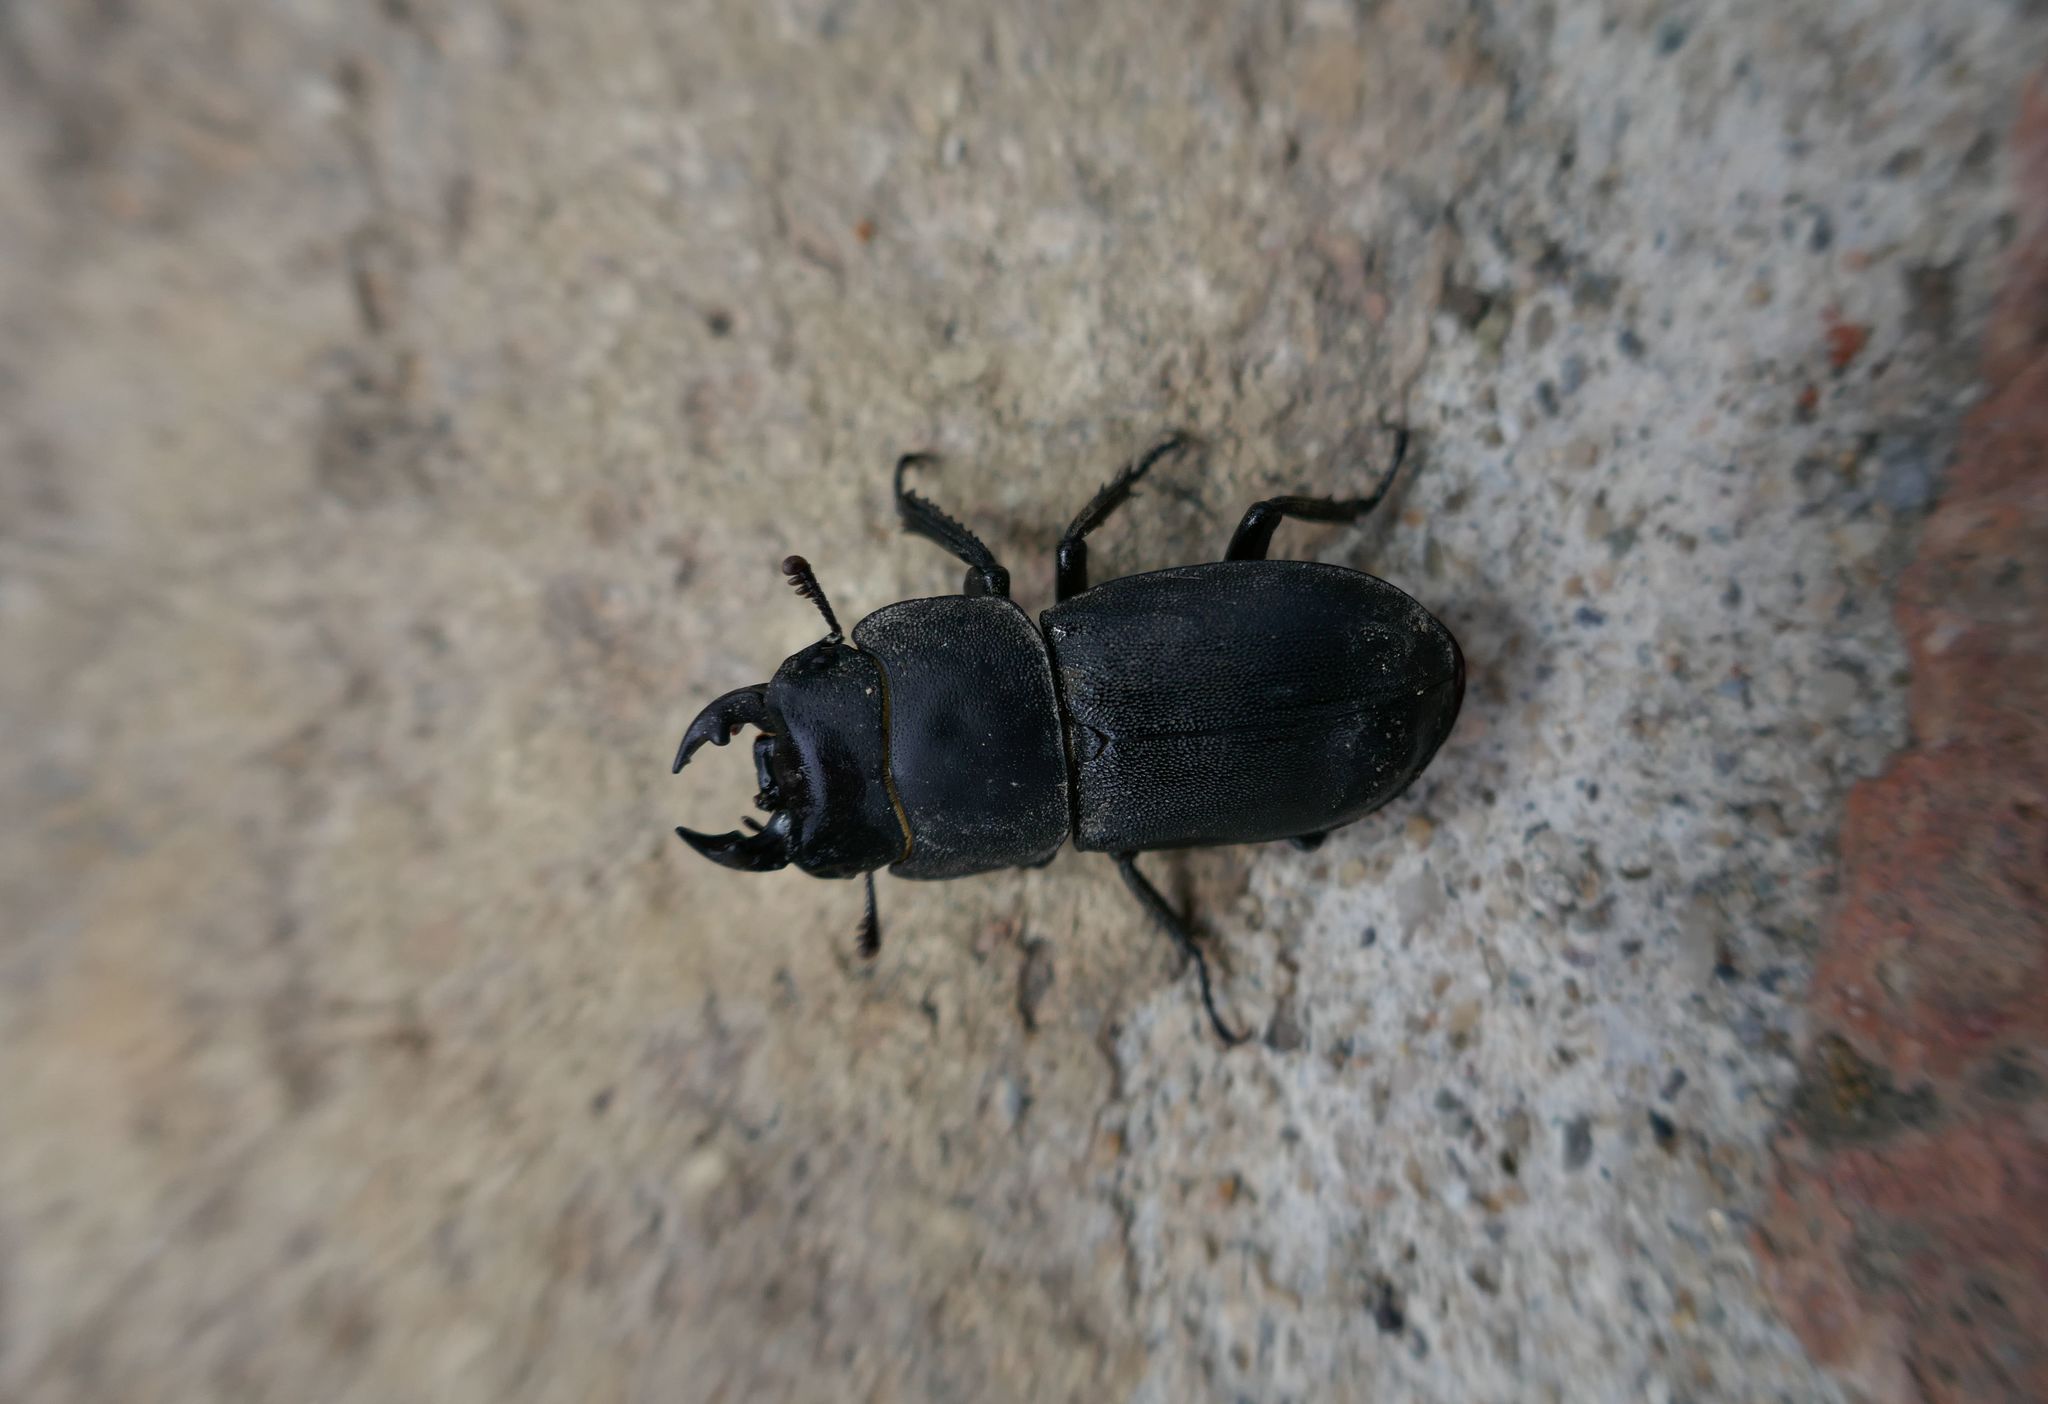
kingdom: Animalia
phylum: Arthropoda
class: Insecta
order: Coleoptera
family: Lucanidae
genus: Dorcus
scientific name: Dorcus parallelipipedus
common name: Lesser stag beetle
